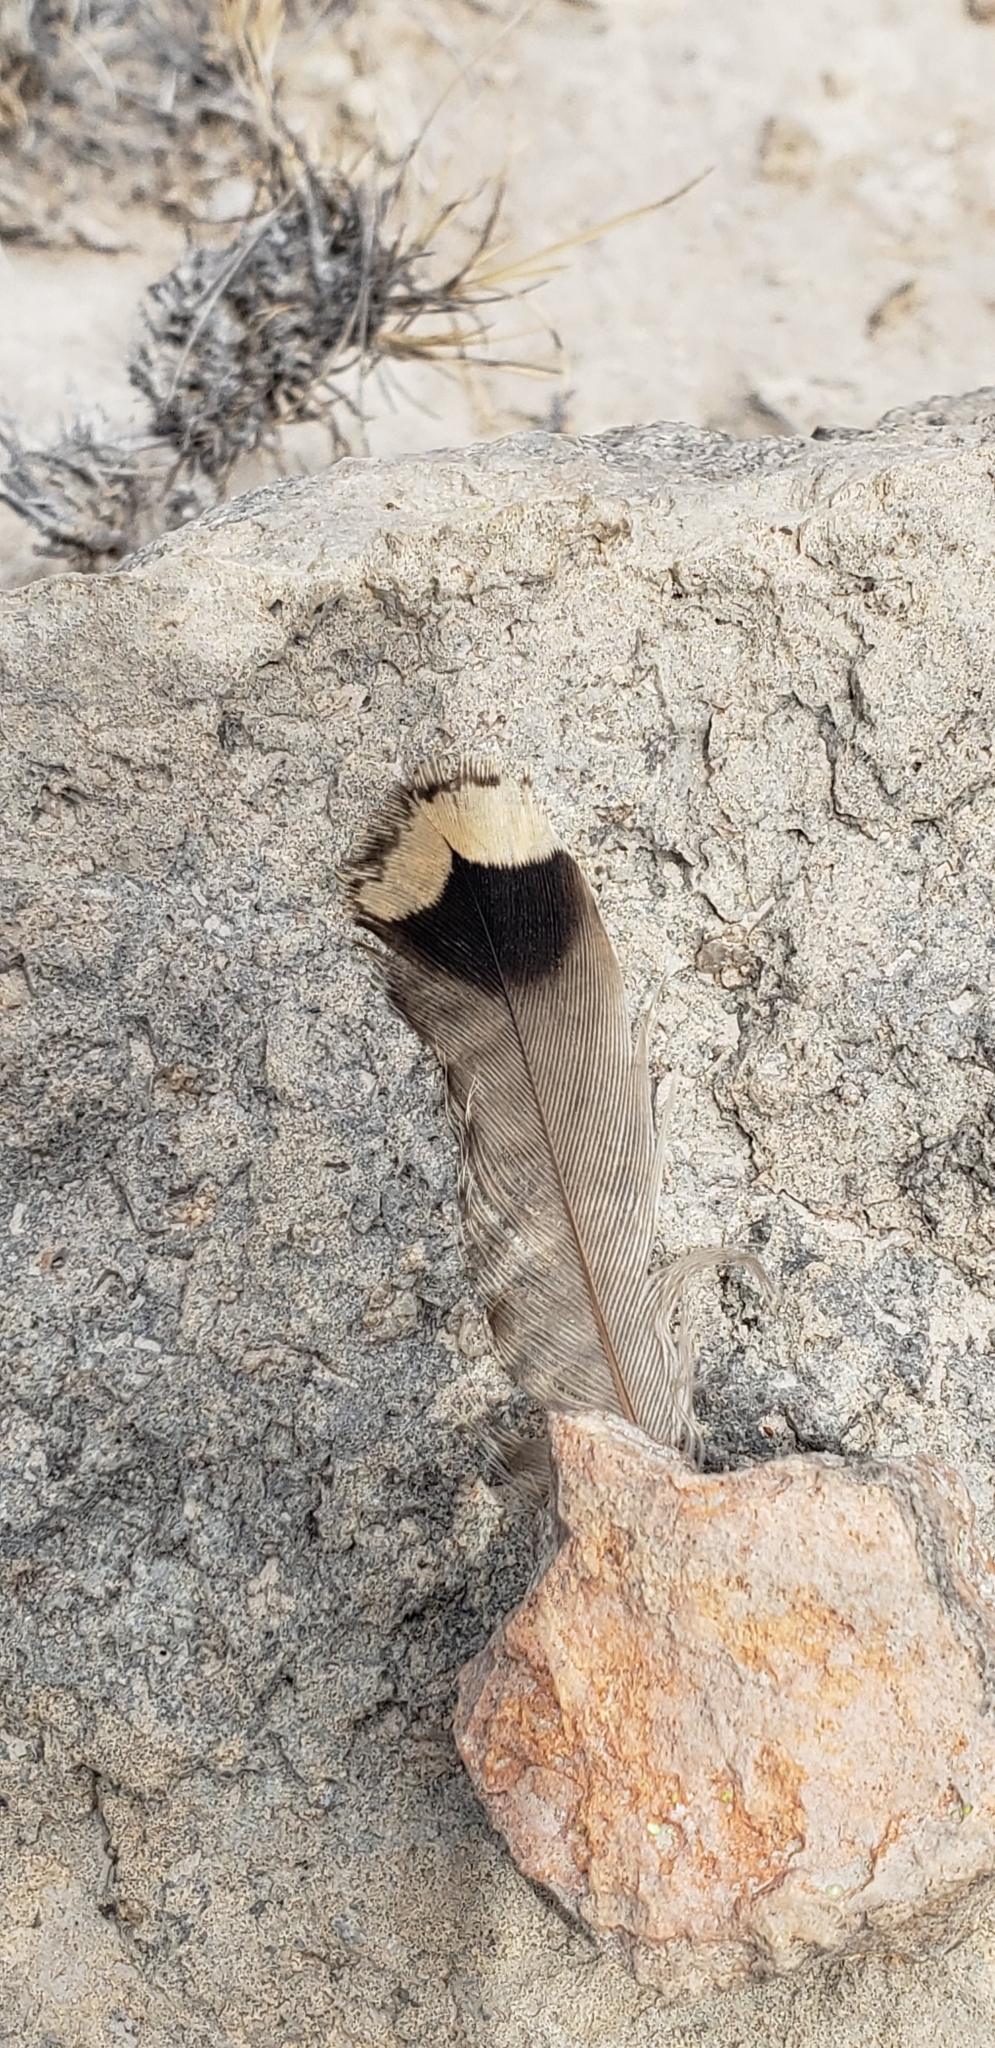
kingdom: Animalia
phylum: Chordata
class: Aves
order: Passeriformes
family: Troglodytidae
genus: Salpinctes
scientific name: Salpinctes obsoletus
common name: Rock wren
